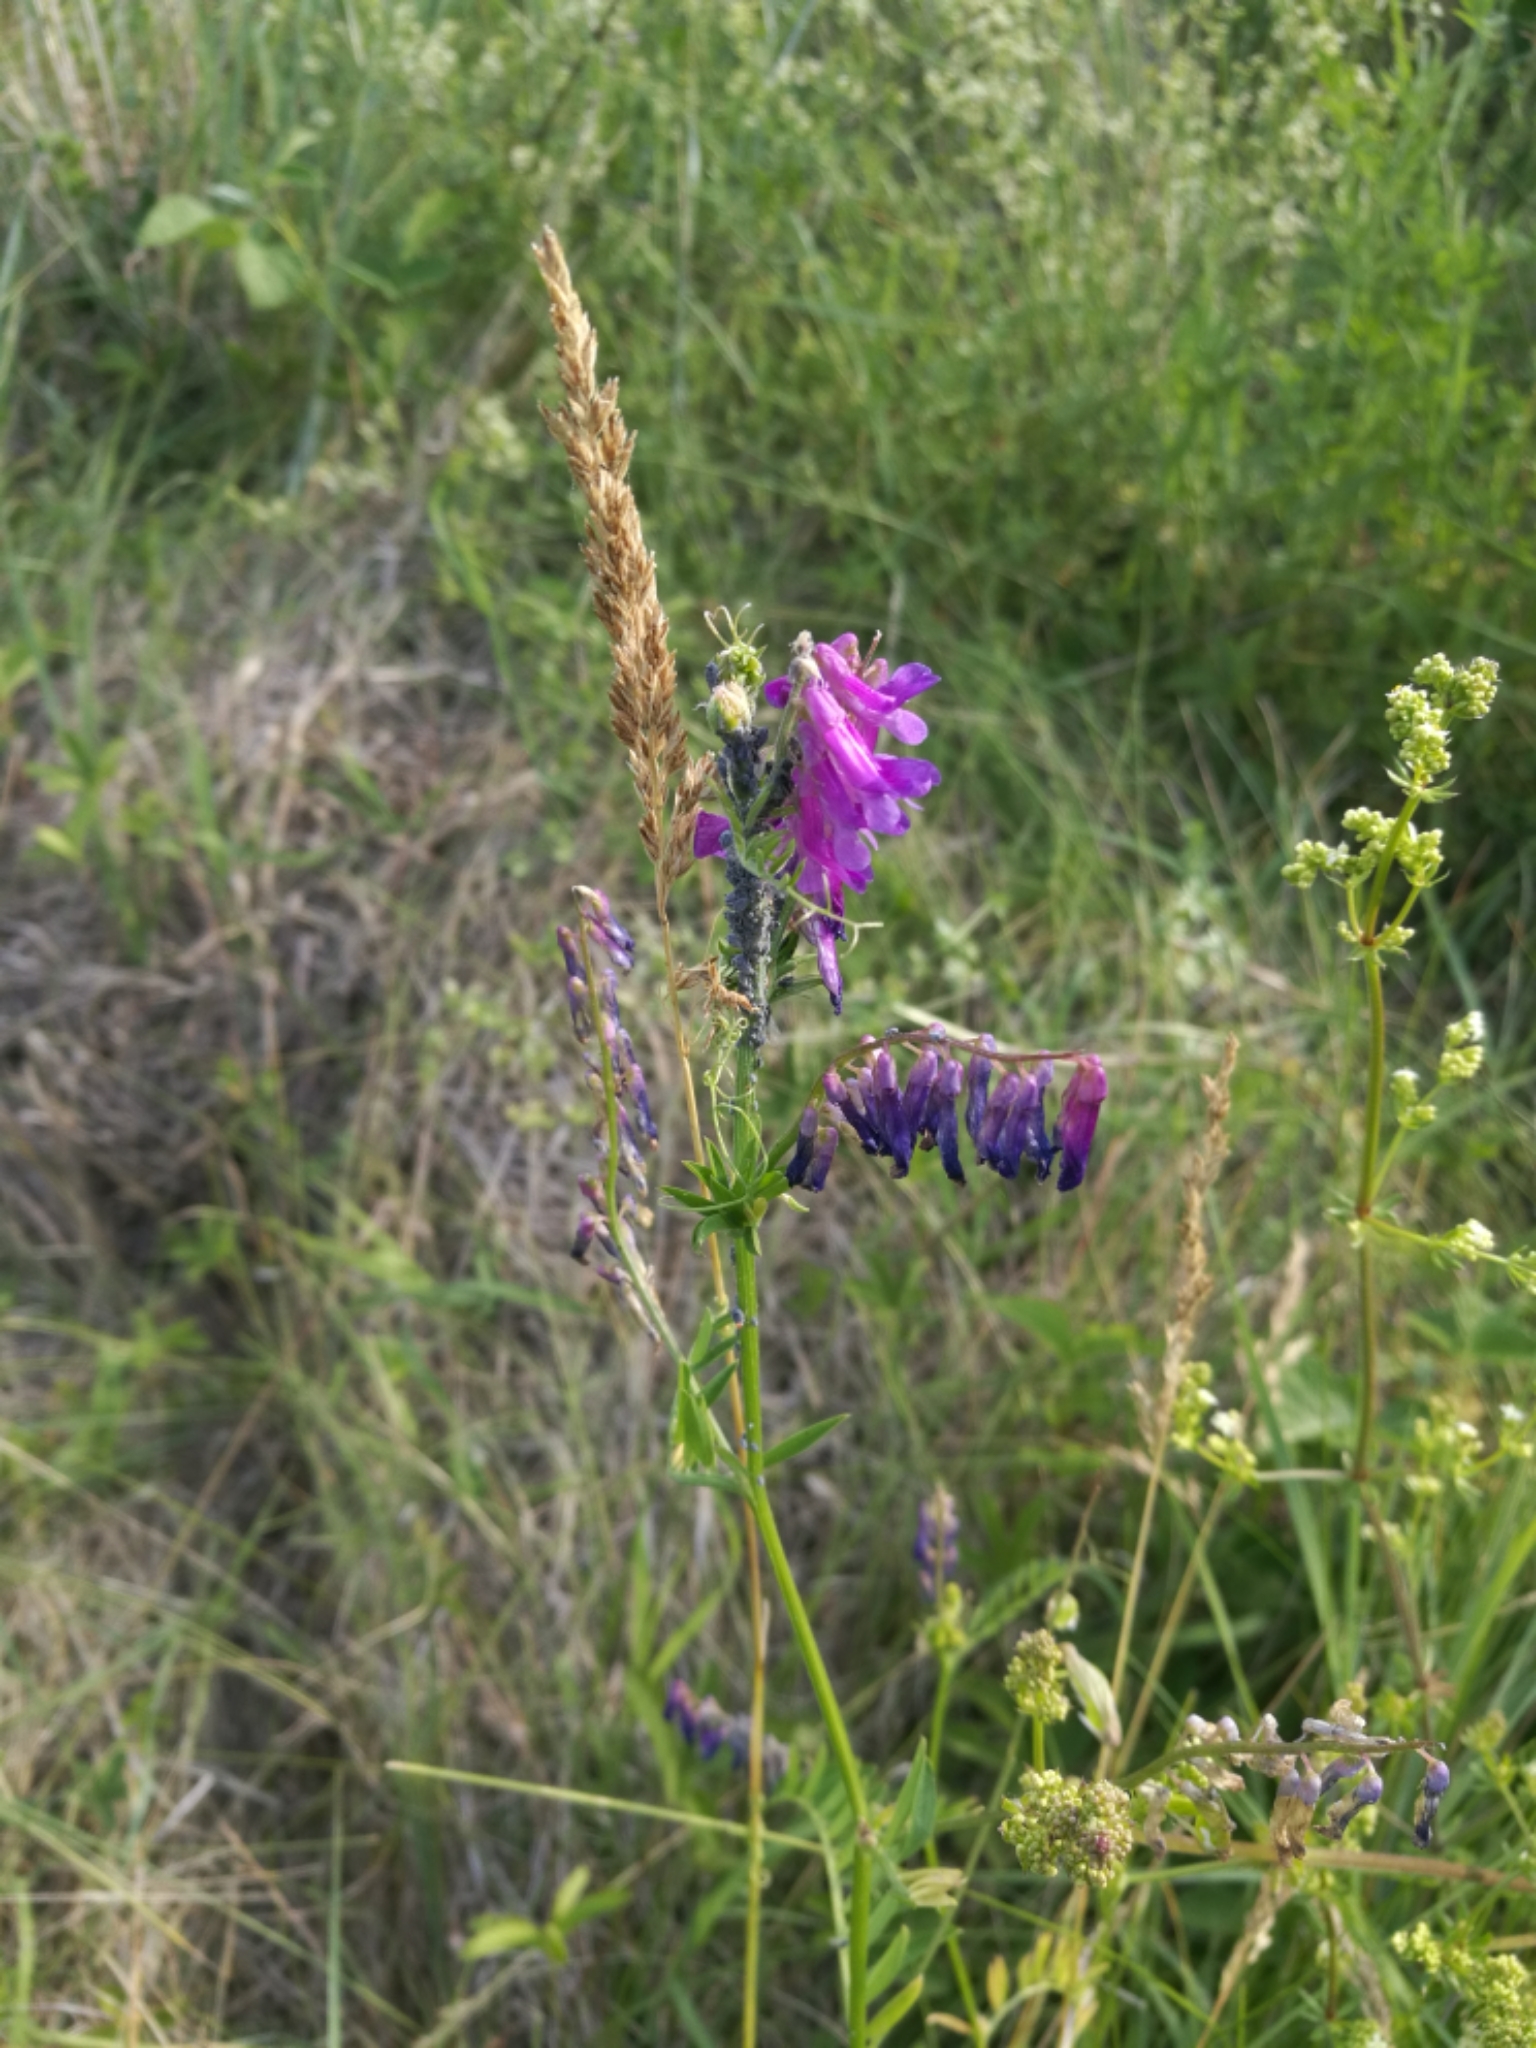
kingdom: Plantae
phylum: Tracheophyta
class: Magnoliopsida
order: Fabales
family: Fabaceae
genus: Vicia
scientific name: Vicia villosa
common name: Fodder vetch
